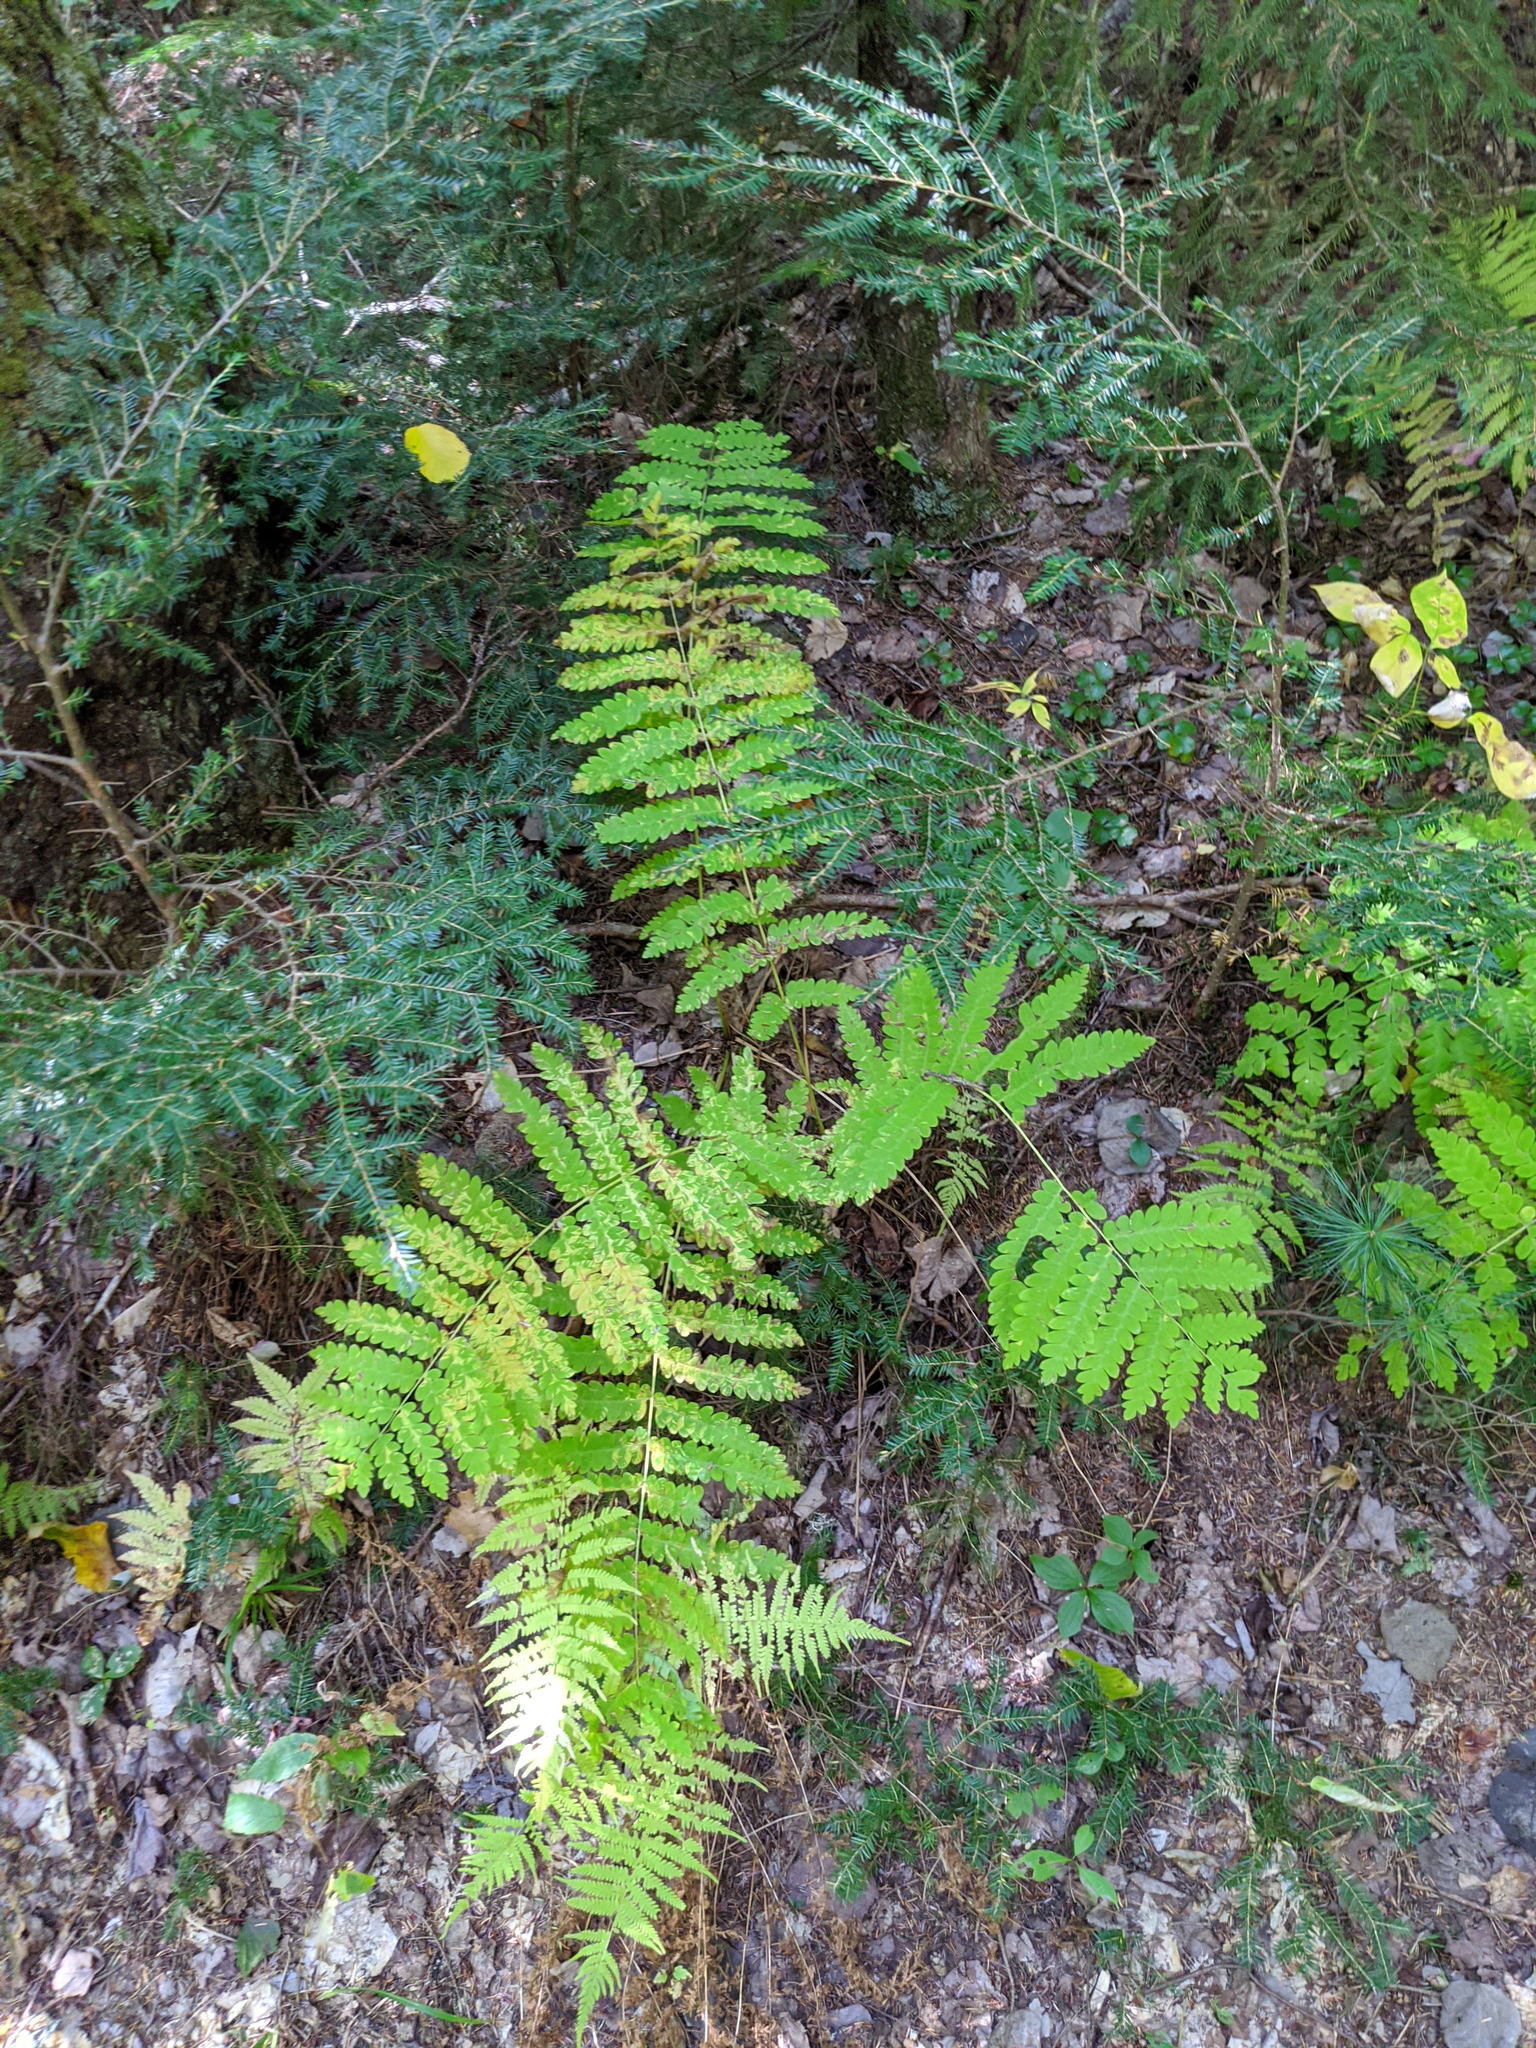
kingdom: Plantae
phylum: Tracheophyta
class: Polypodiopsida
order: Osmundales
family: Osmundaceae
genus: Claytosmunda
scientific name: Claytosmunda claytoniana
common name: Clayton's fern
